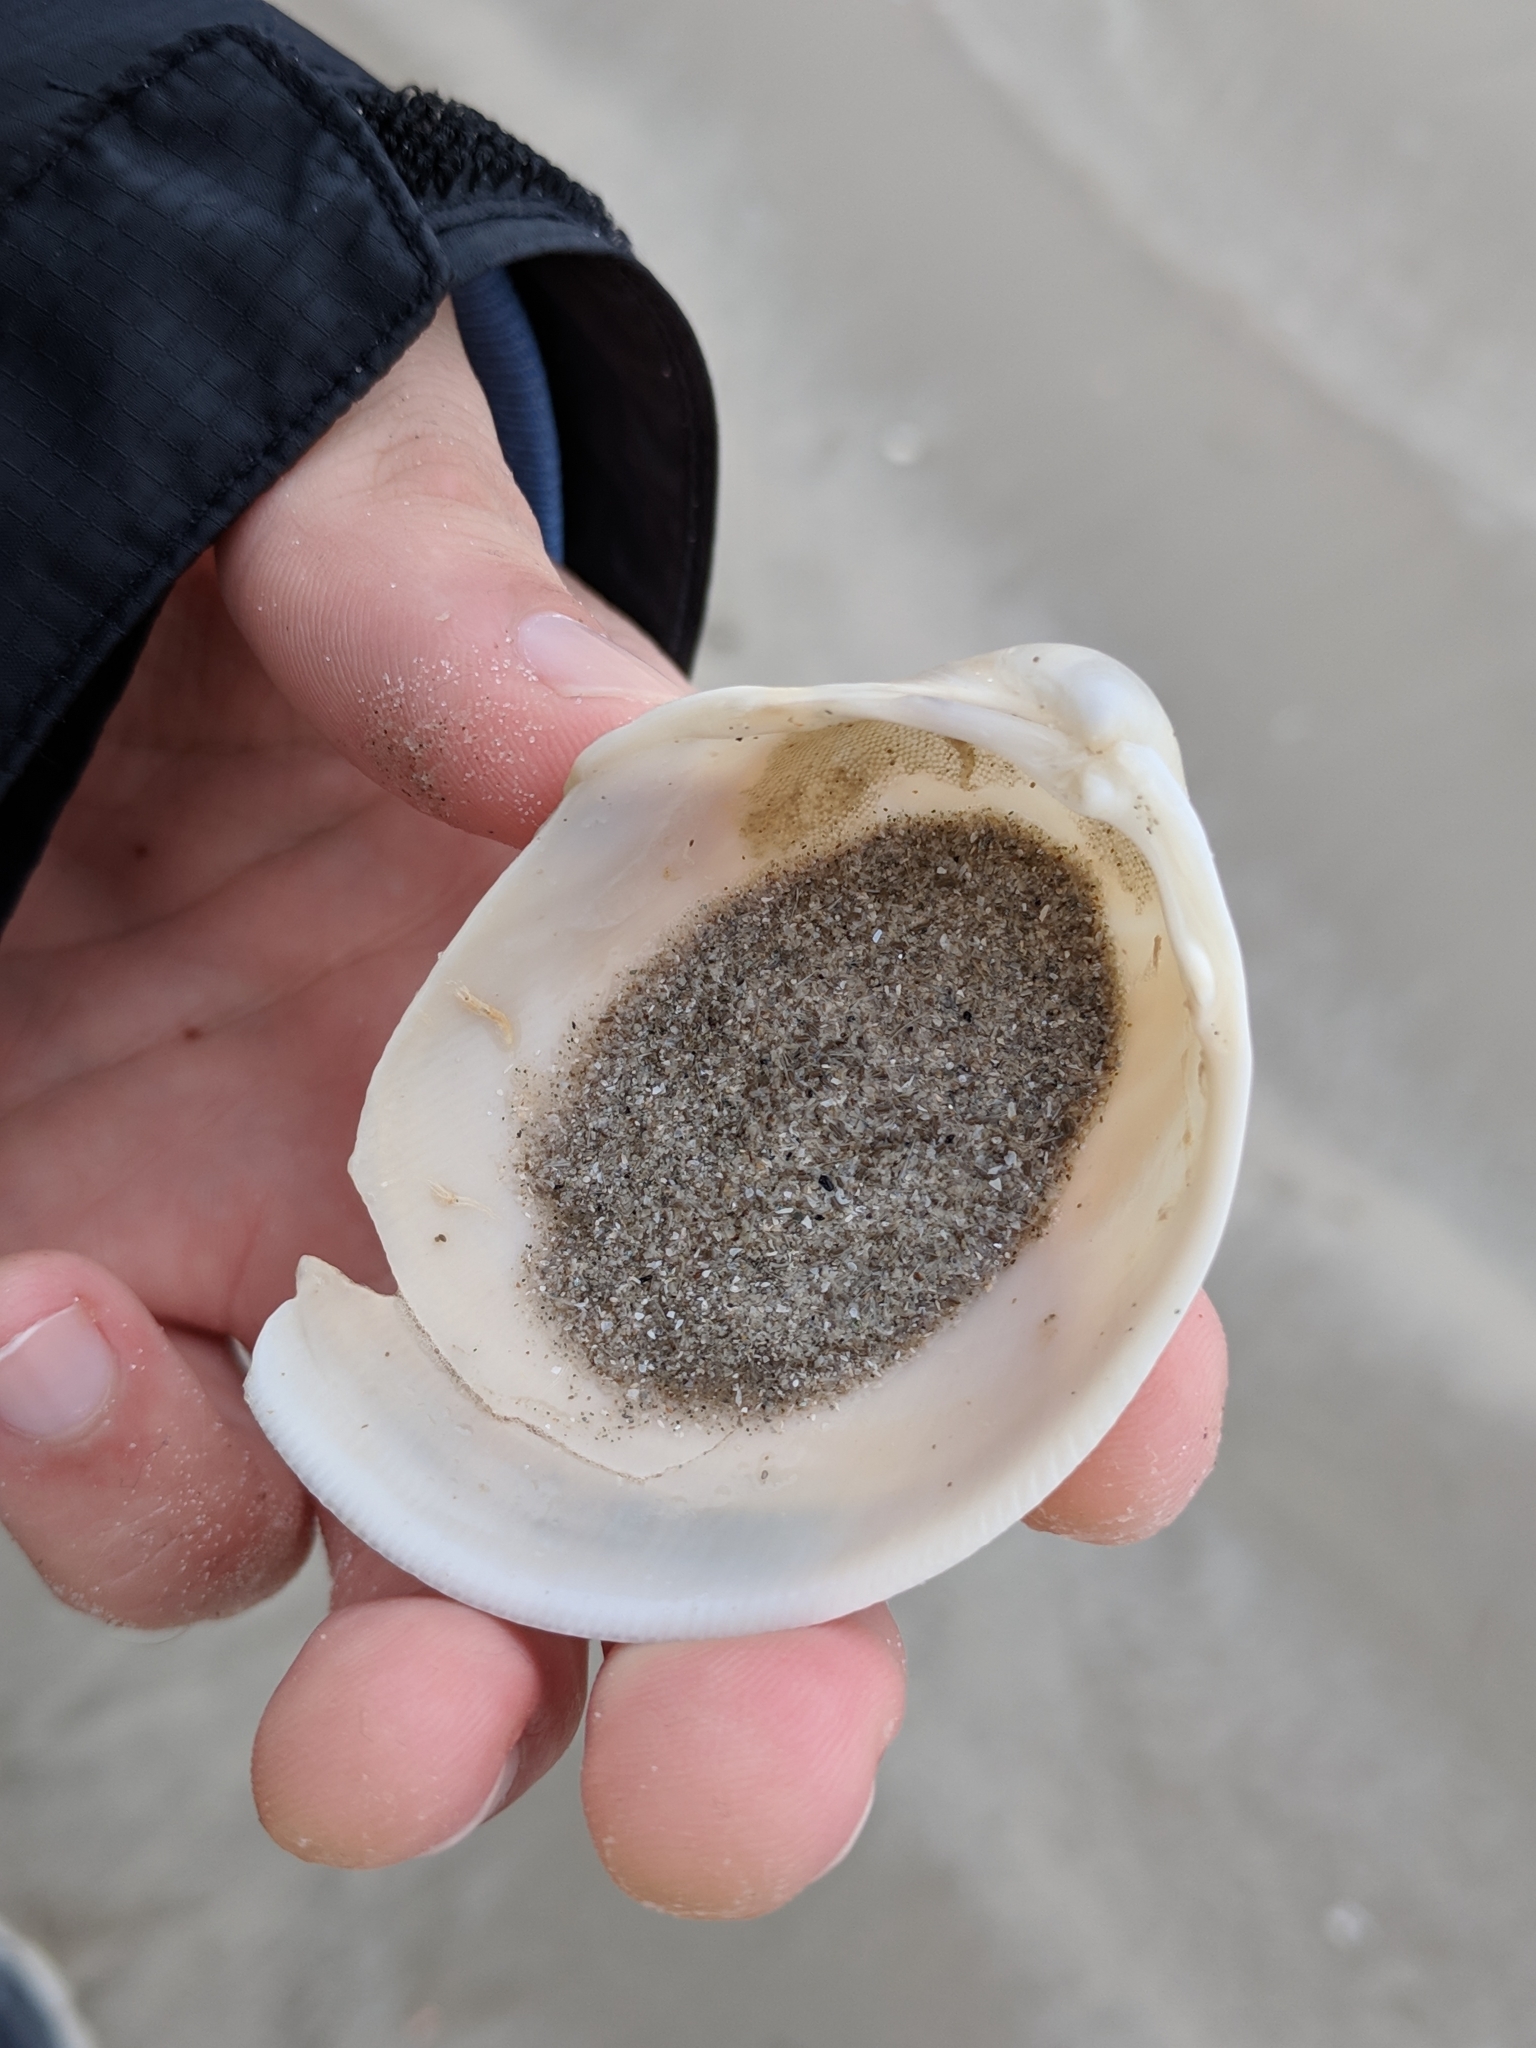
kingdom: Animalia
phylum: Mollusca
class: Bivalvia
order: Cardiida
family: Cardiidae
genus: Laevicardium
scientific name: Laevicardium serratum
